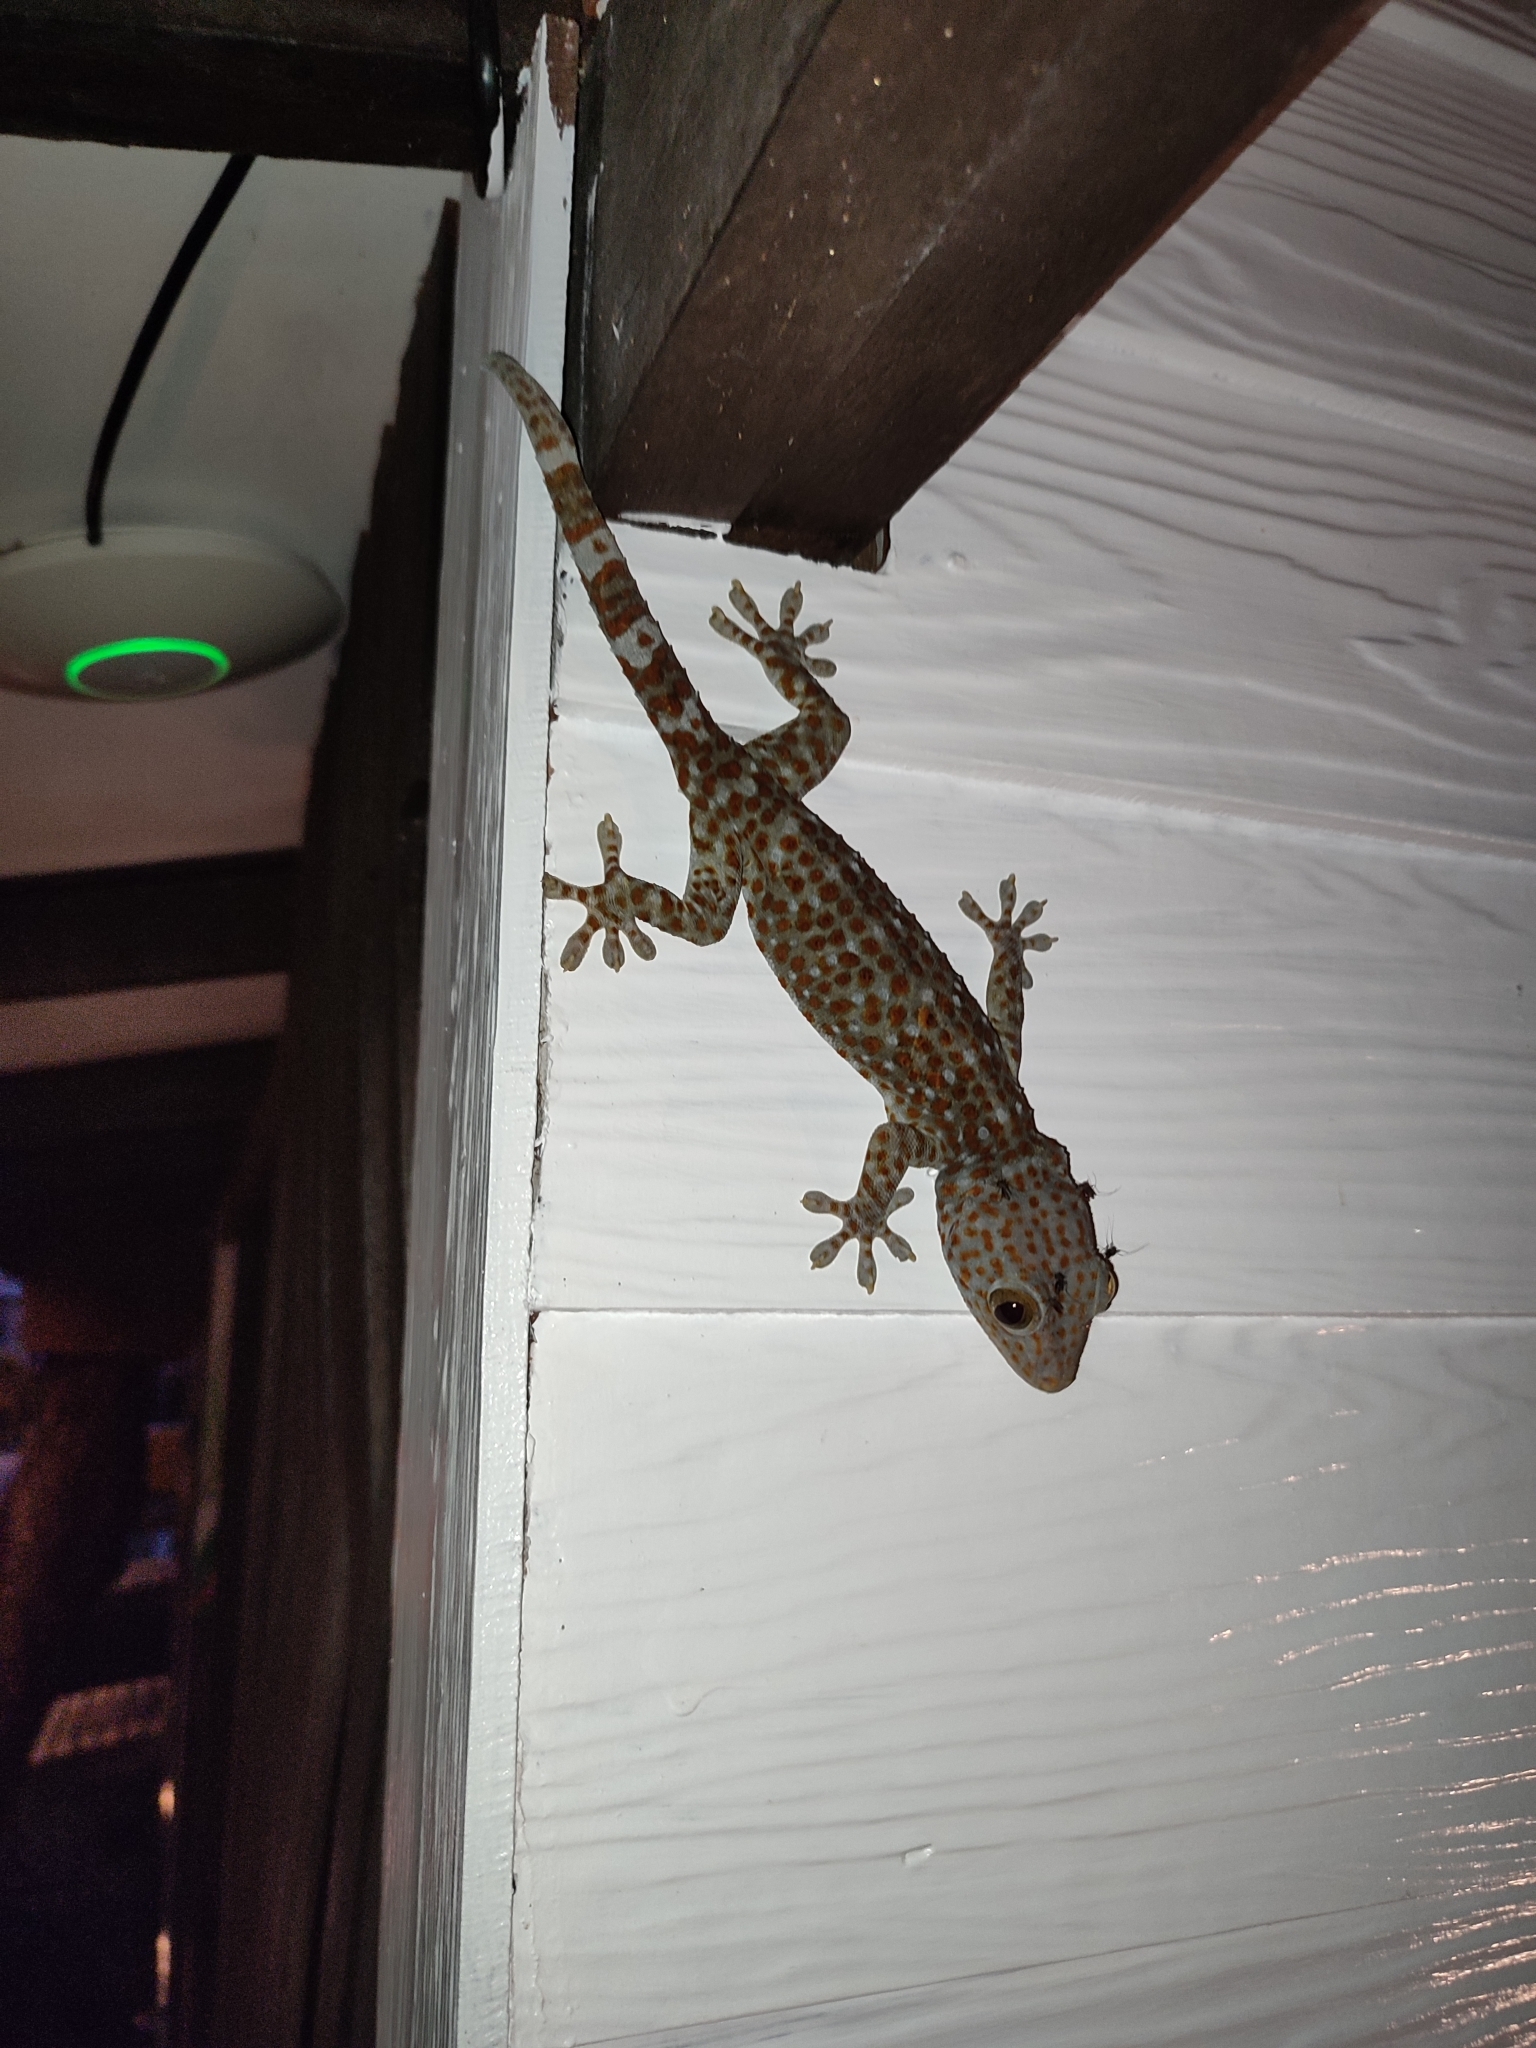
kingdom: Animalia
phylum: Chordata
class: Squamata
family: Gekkonidae
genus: Gekko
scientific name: Gekko gecko
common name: Tokay gecko
